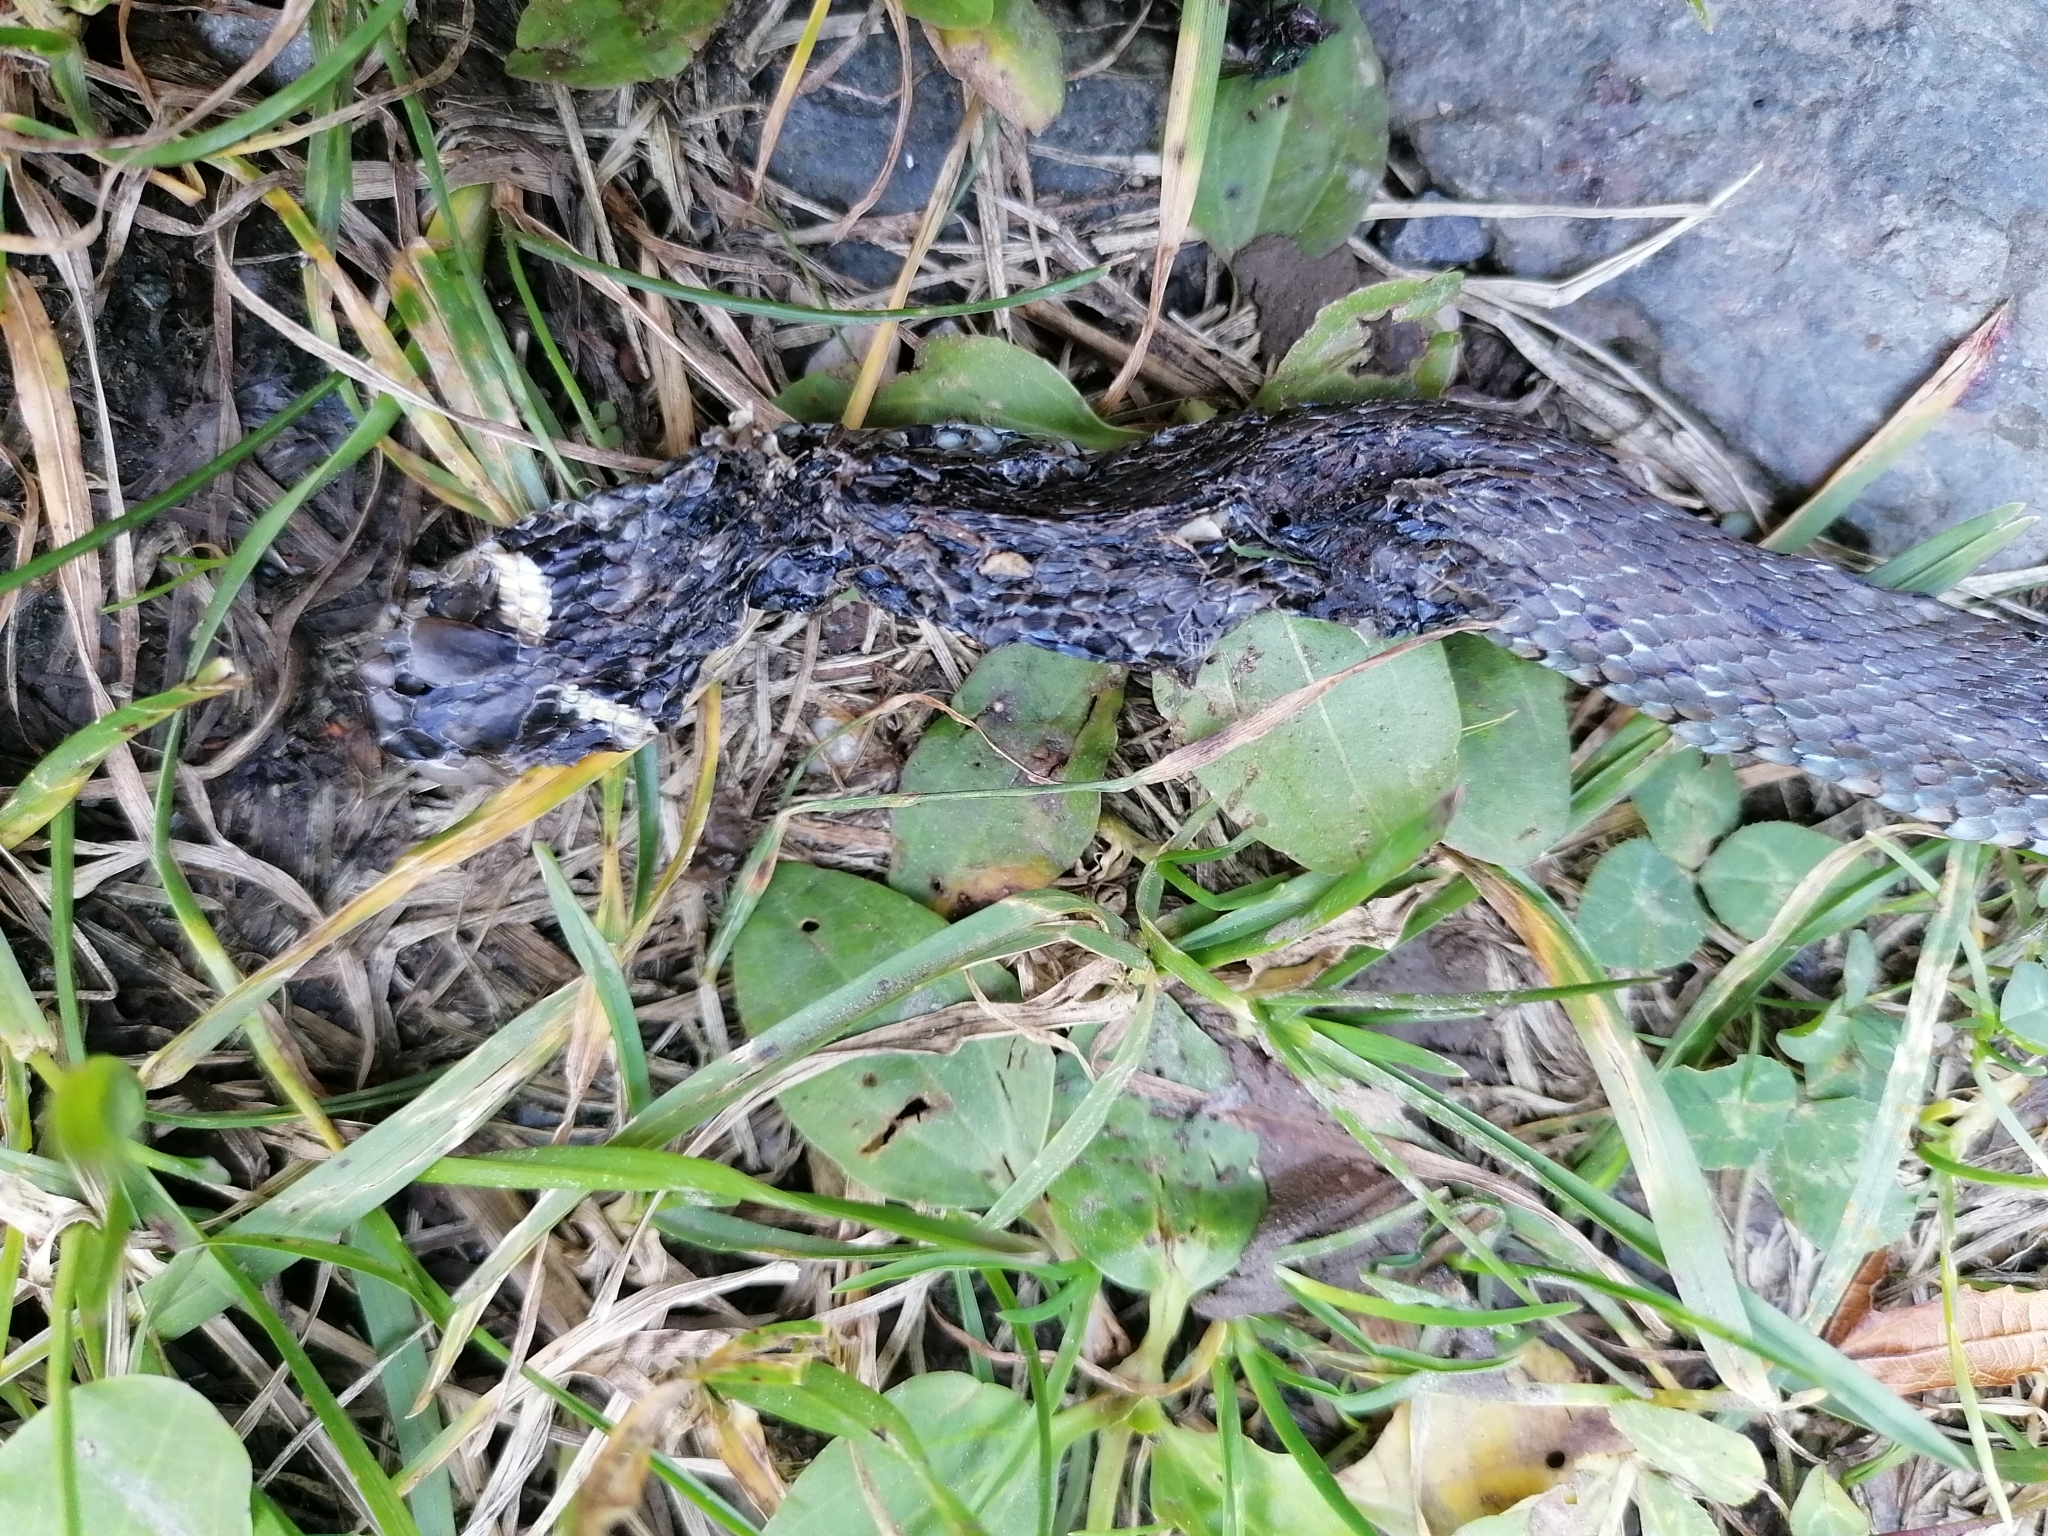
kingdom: Animalia
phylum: Chordata
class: Squamata
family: Colubridae
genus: Natrix
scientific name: Natrix natrix
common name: Grass snake
